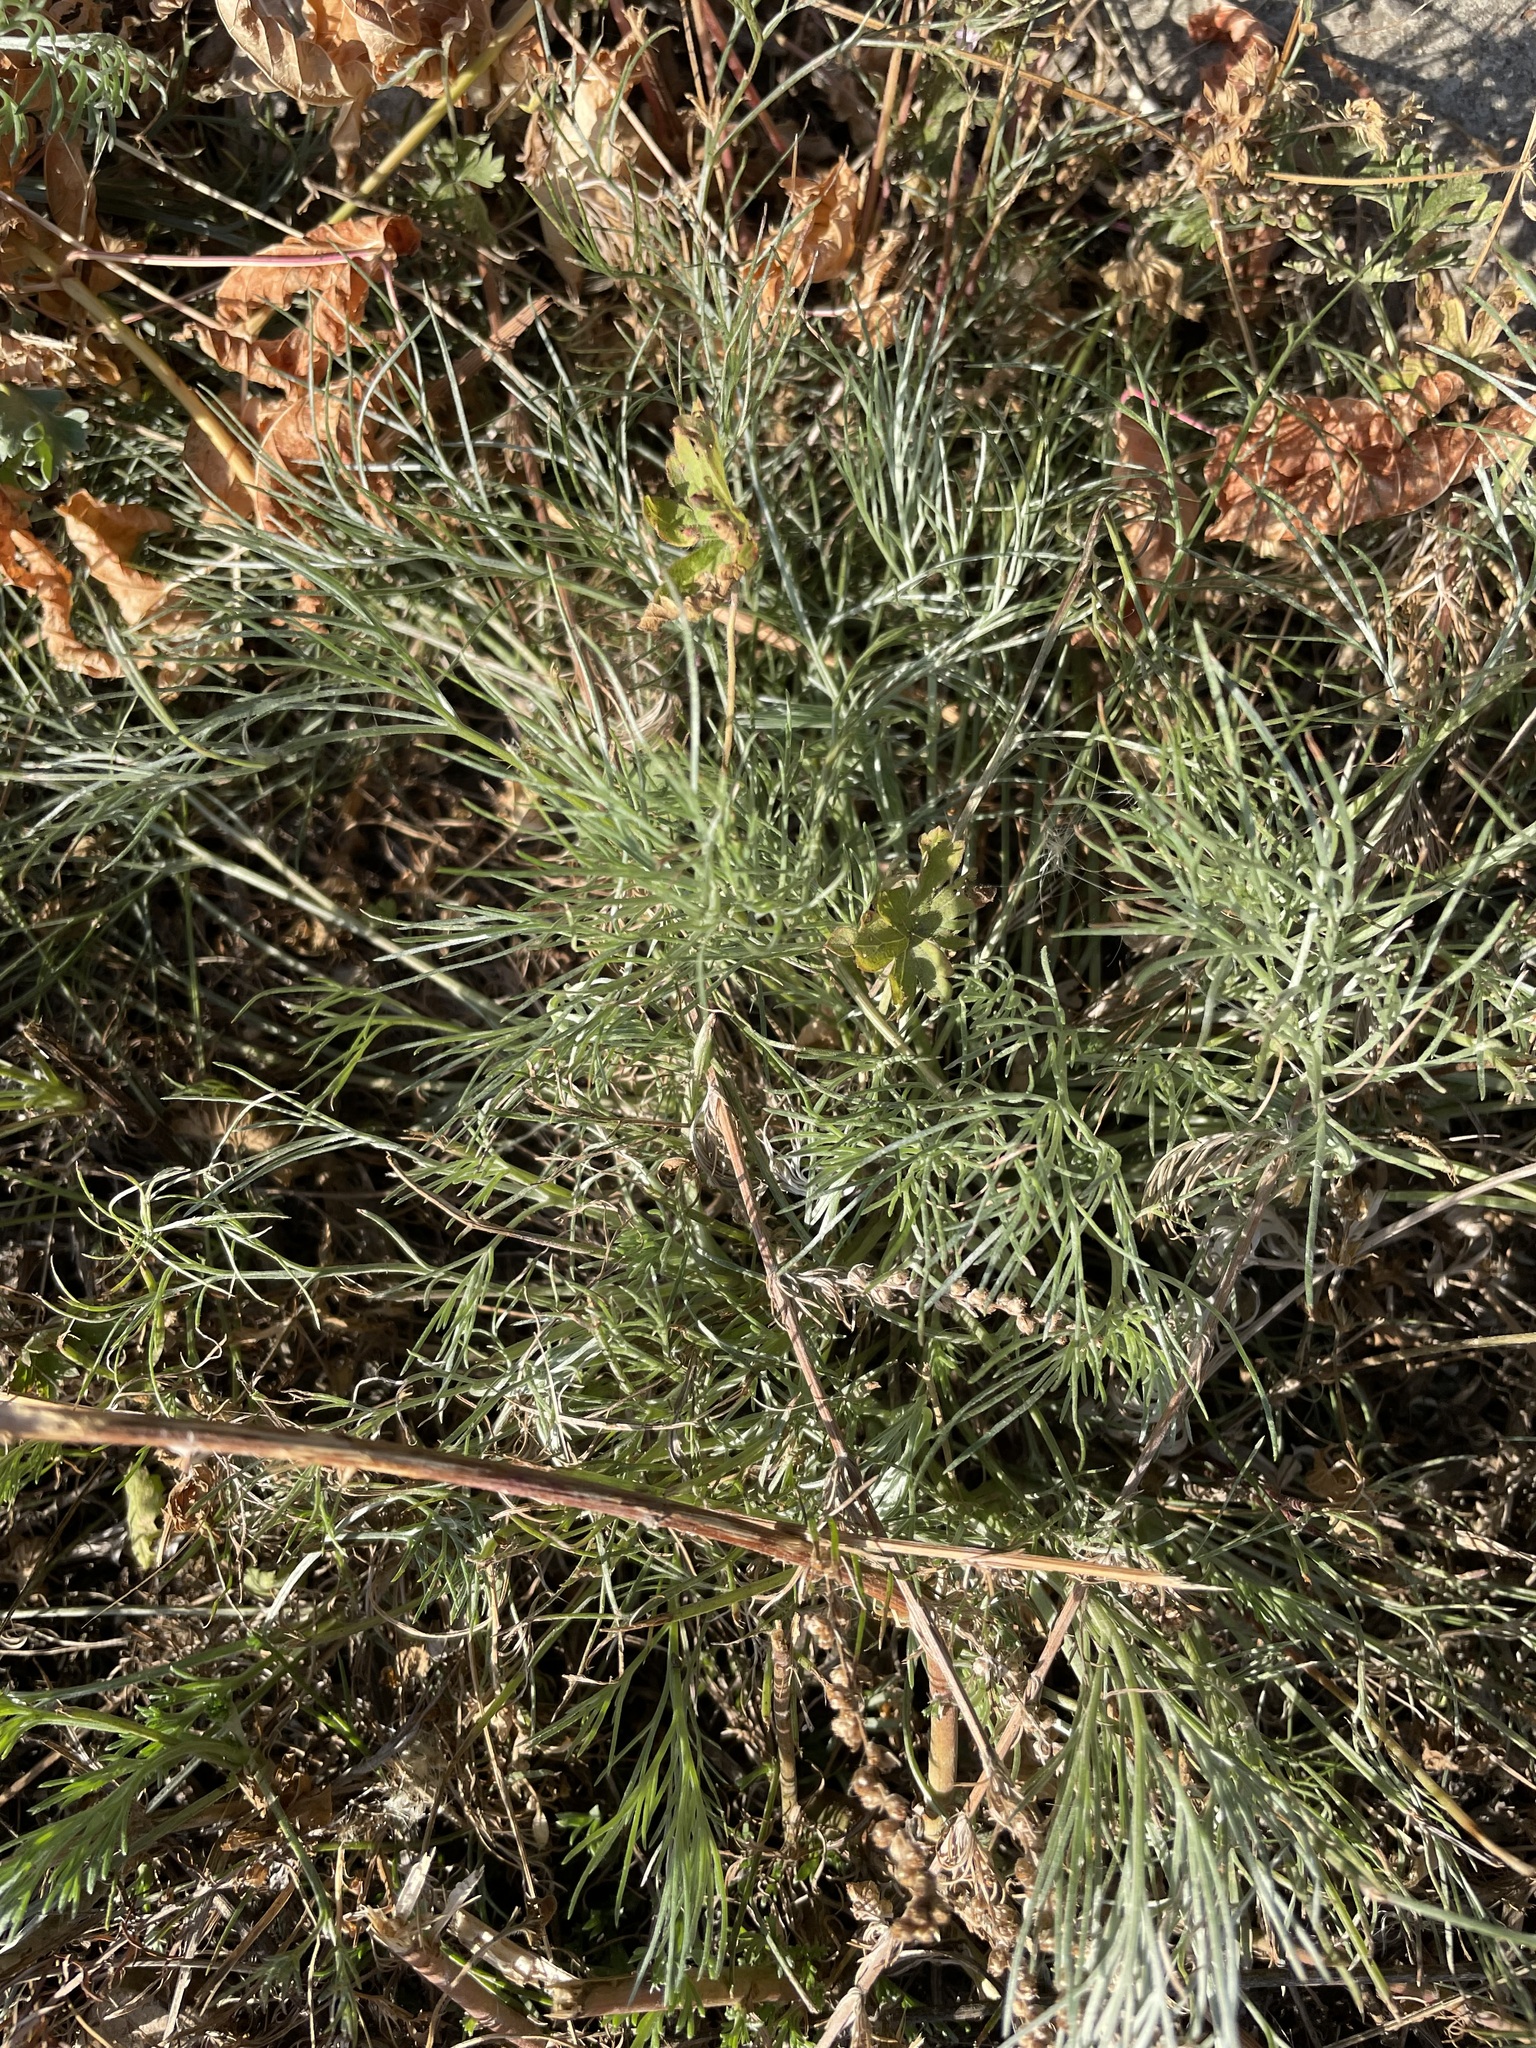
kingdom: Plantae
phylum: Tracheophyta
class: Magnoliopsida
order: Asterales
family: Asteraceae
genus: Artemisia
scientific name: Artemisia campestris
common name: Field wormwood
